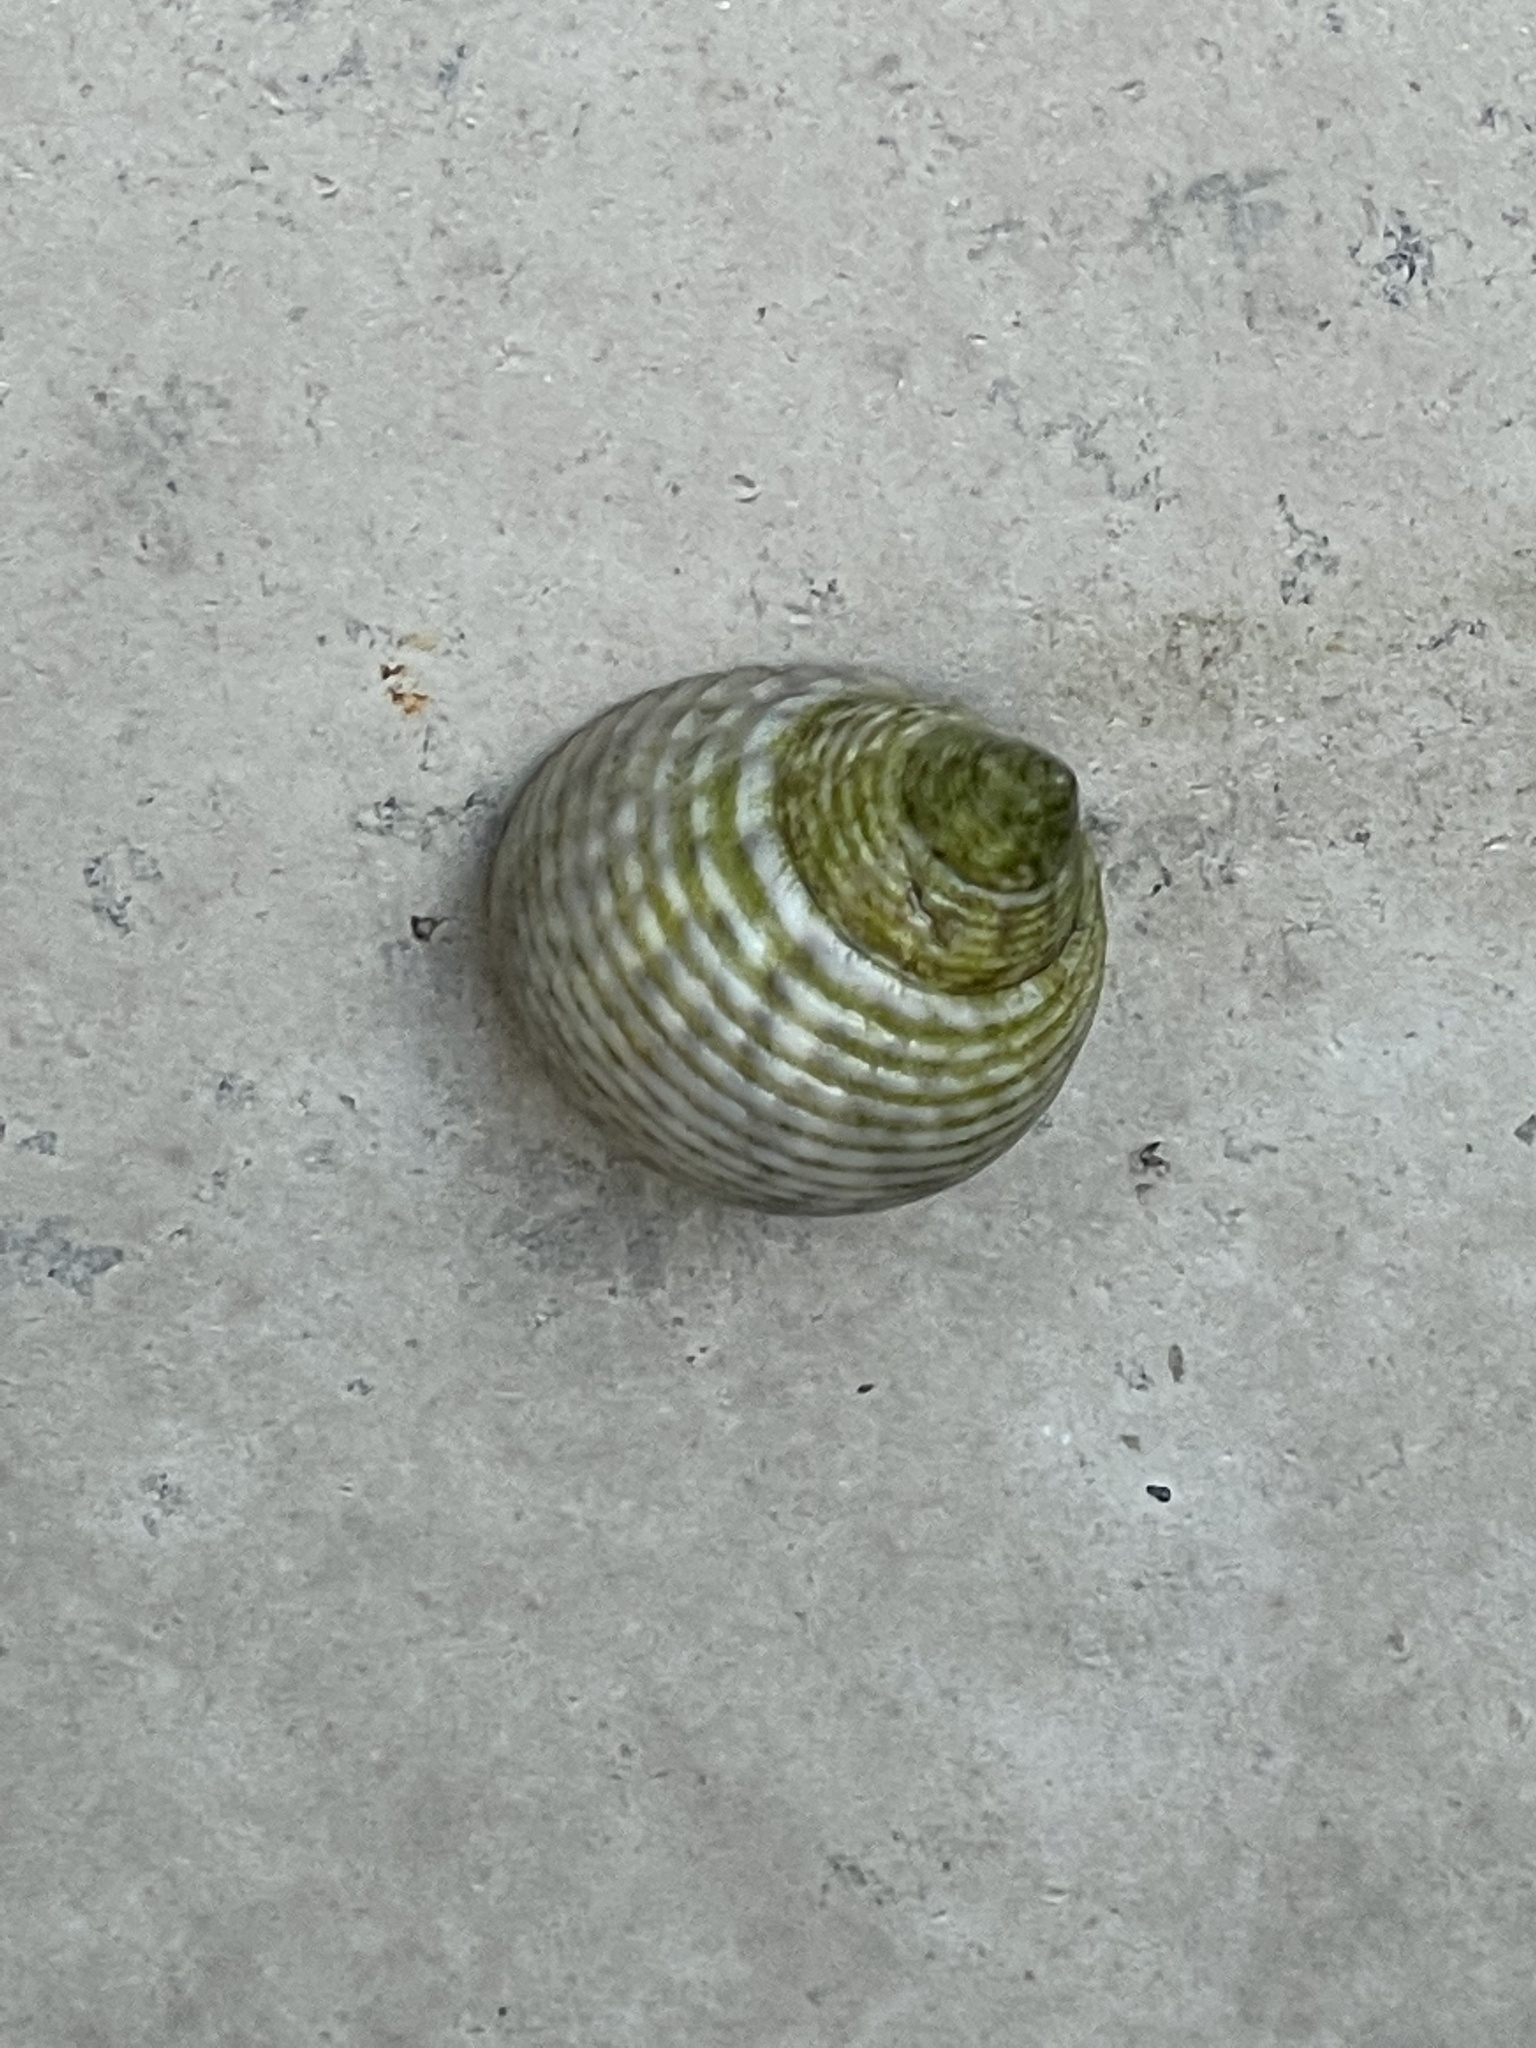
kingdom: Animalia
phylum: Mollusca
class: Gastropoda
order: Littorinimorpha
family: Littorinidae
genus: Littoraria
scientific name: Littoraria irrorata
